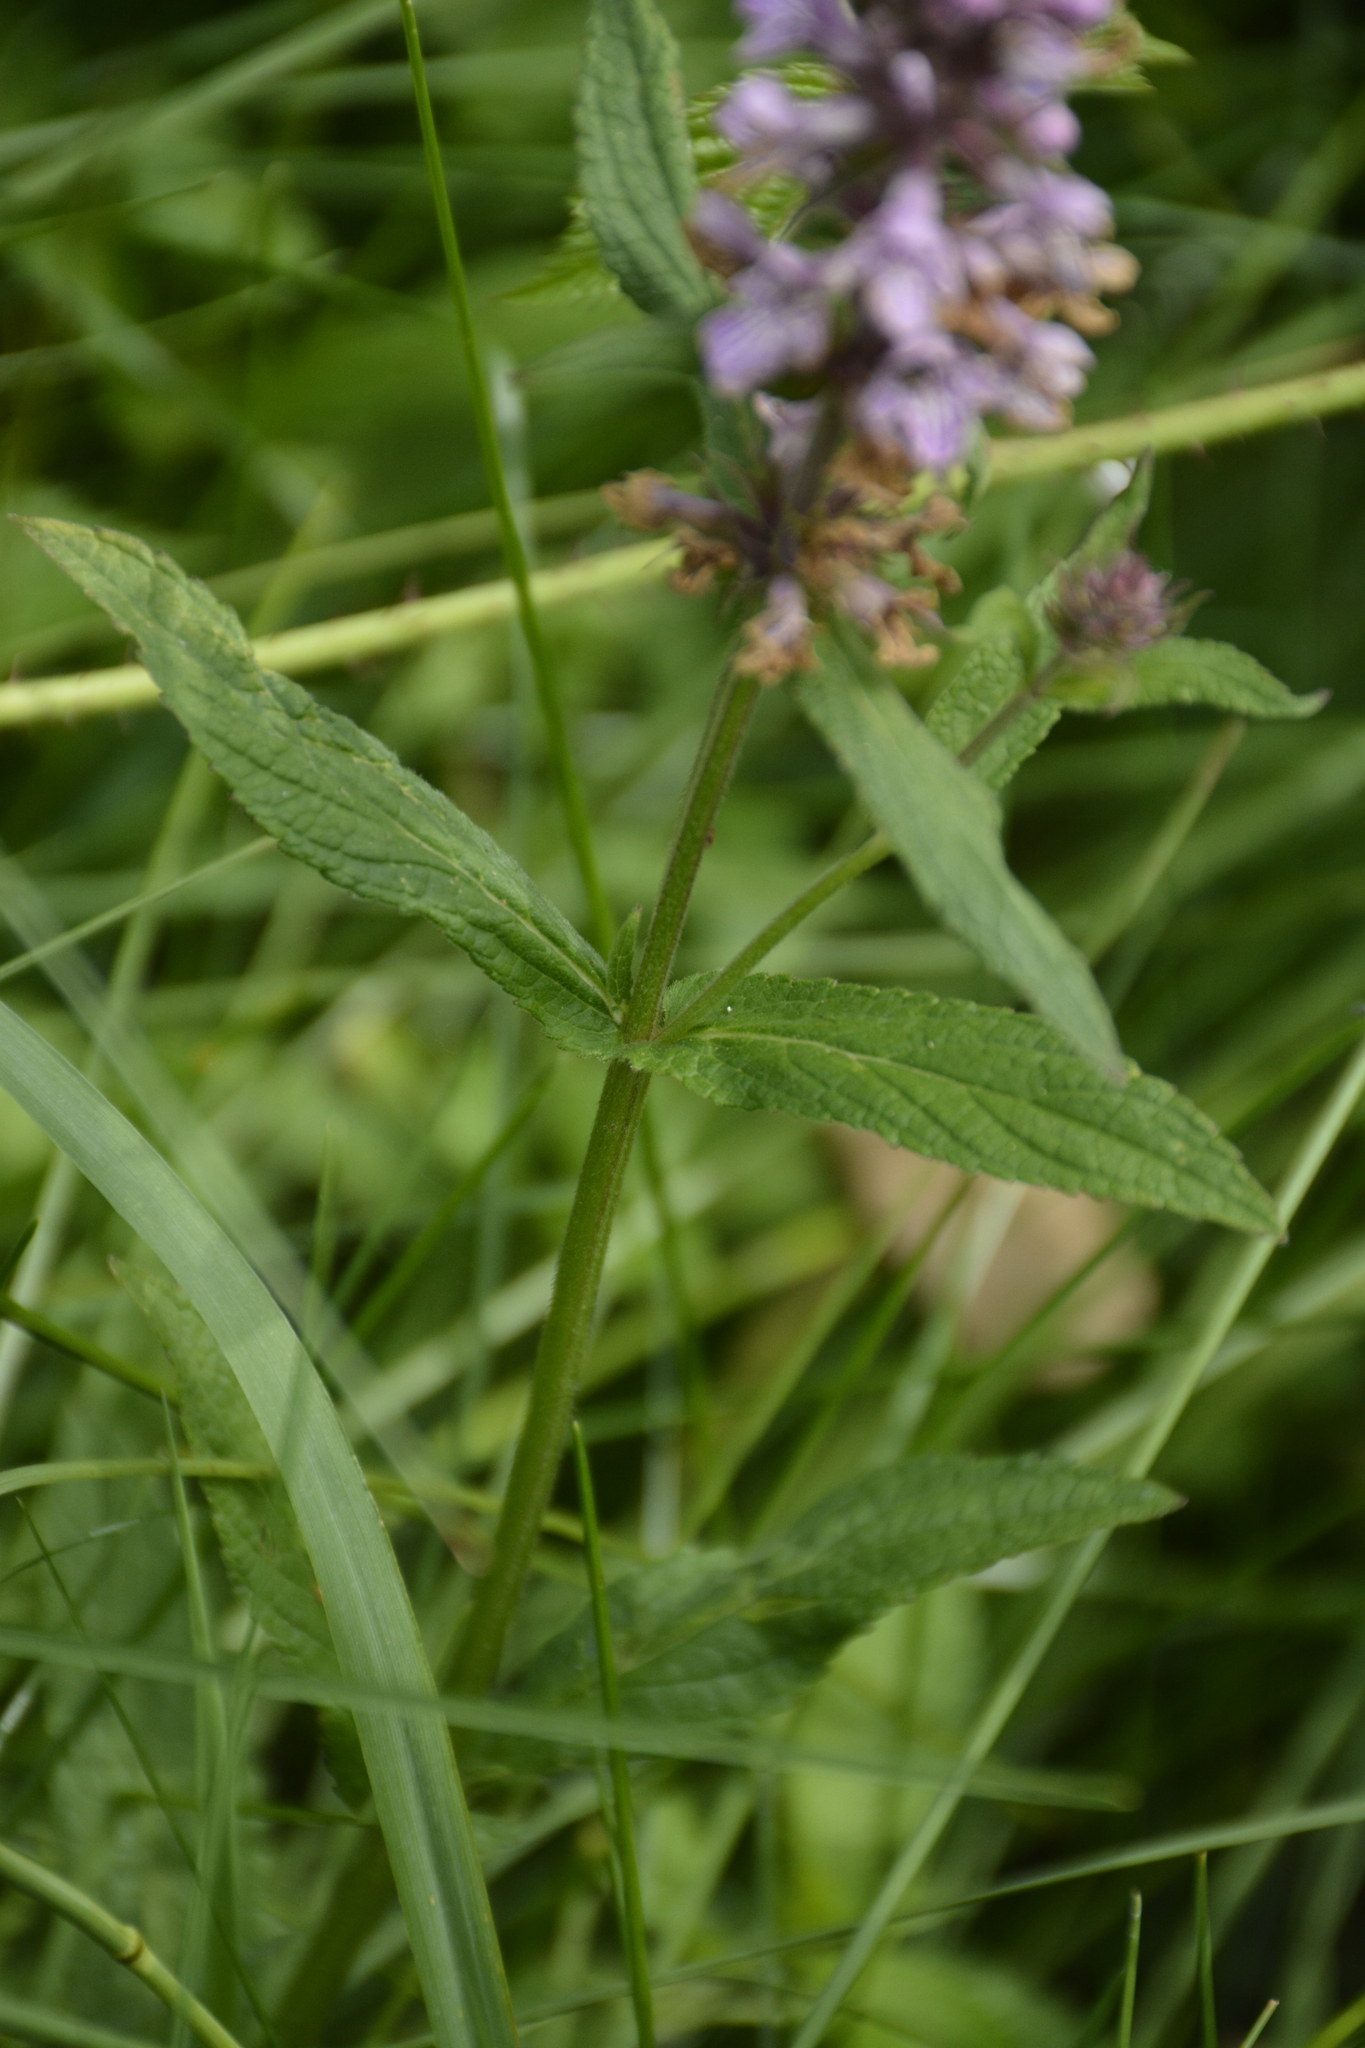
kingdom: Plantae
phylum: Tracheophyta
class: Magnoliopsida
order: Lamiales
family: Lamiaceae
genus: Stachys
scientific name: Stachys palustris
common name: Marsh woundwort
